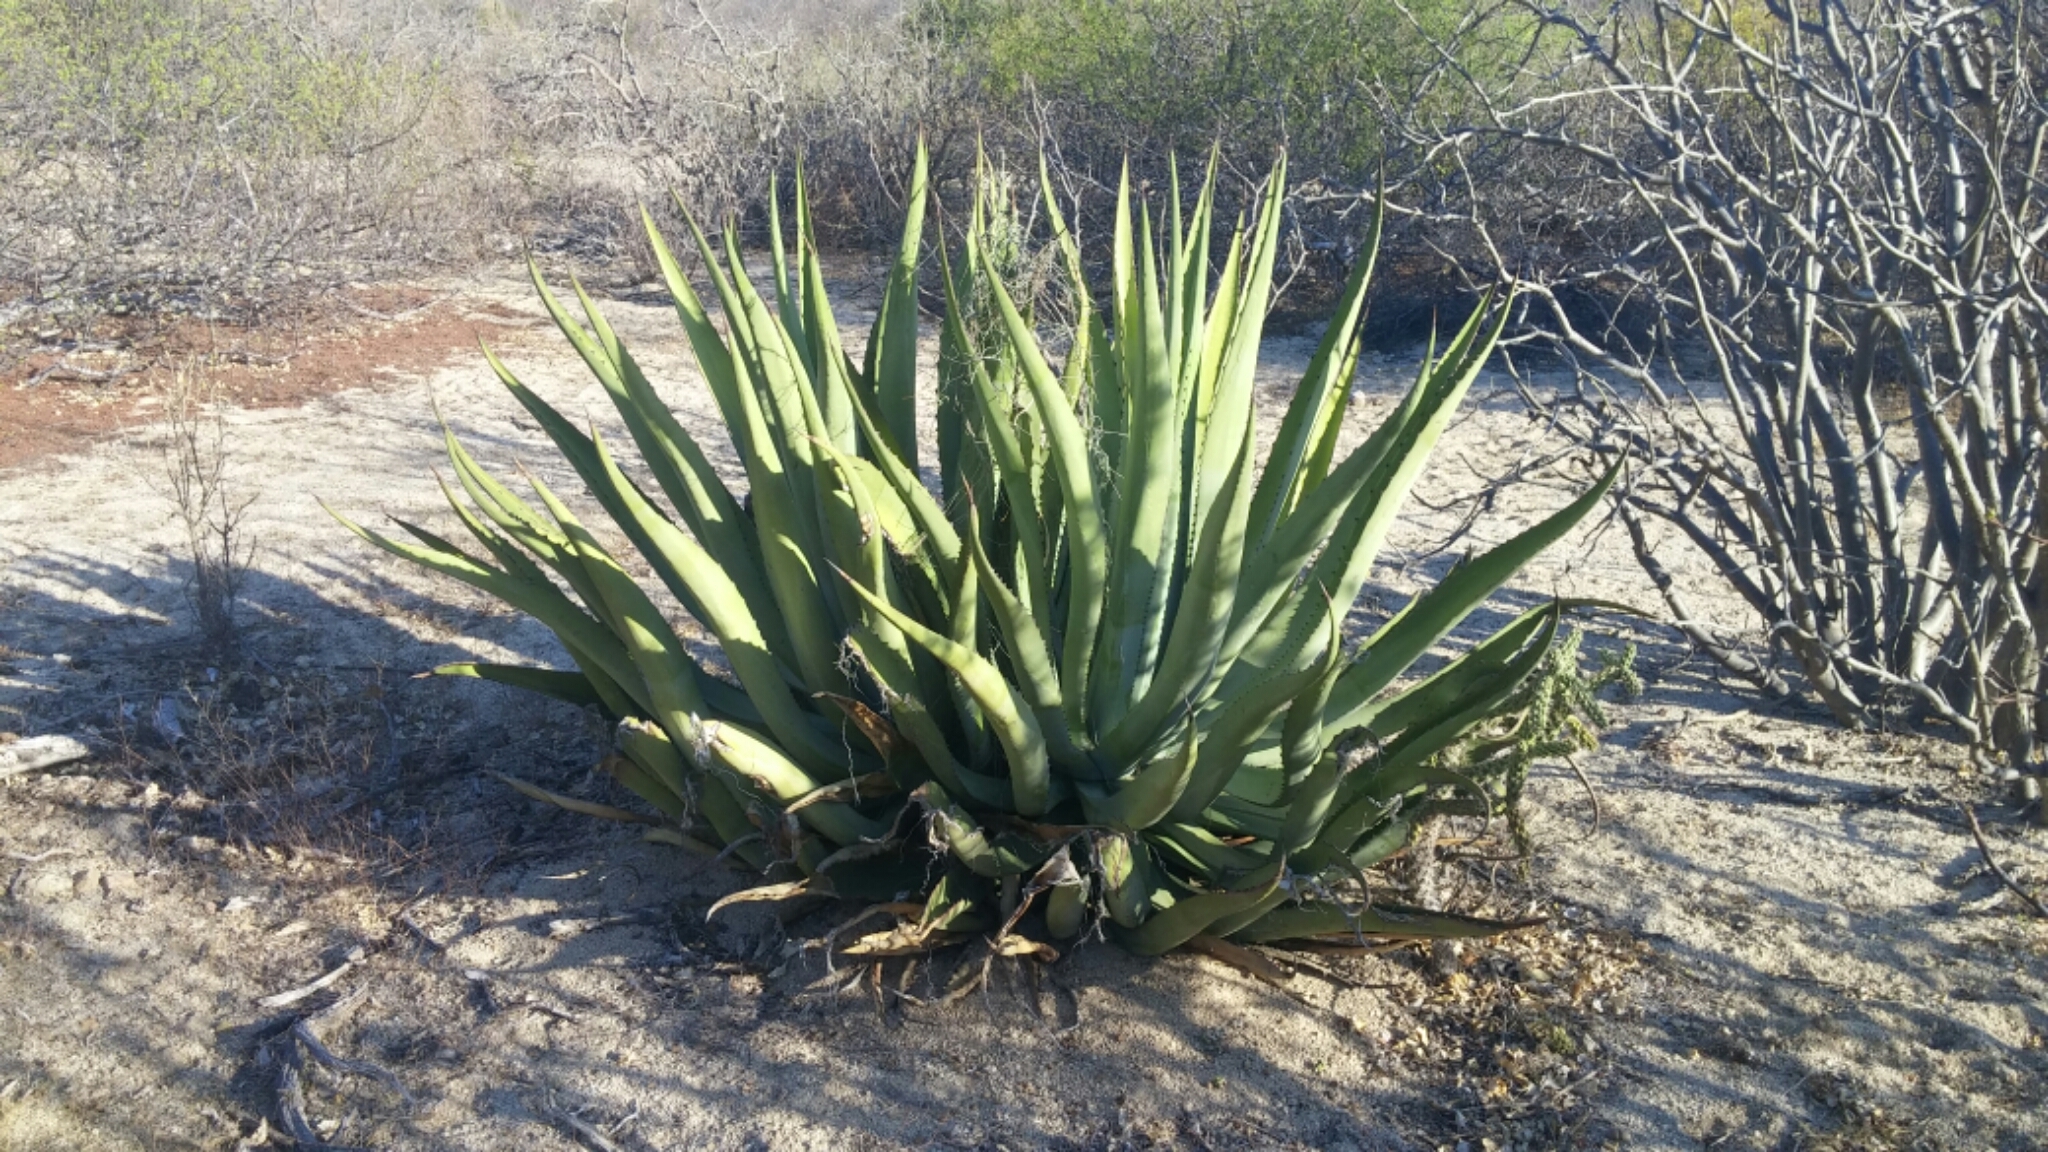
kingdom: Plantae
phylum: Tracheophyta
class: Liliopsida
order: Asparagales
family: Asparagaceae
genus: Agave
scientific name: Agave aurea
